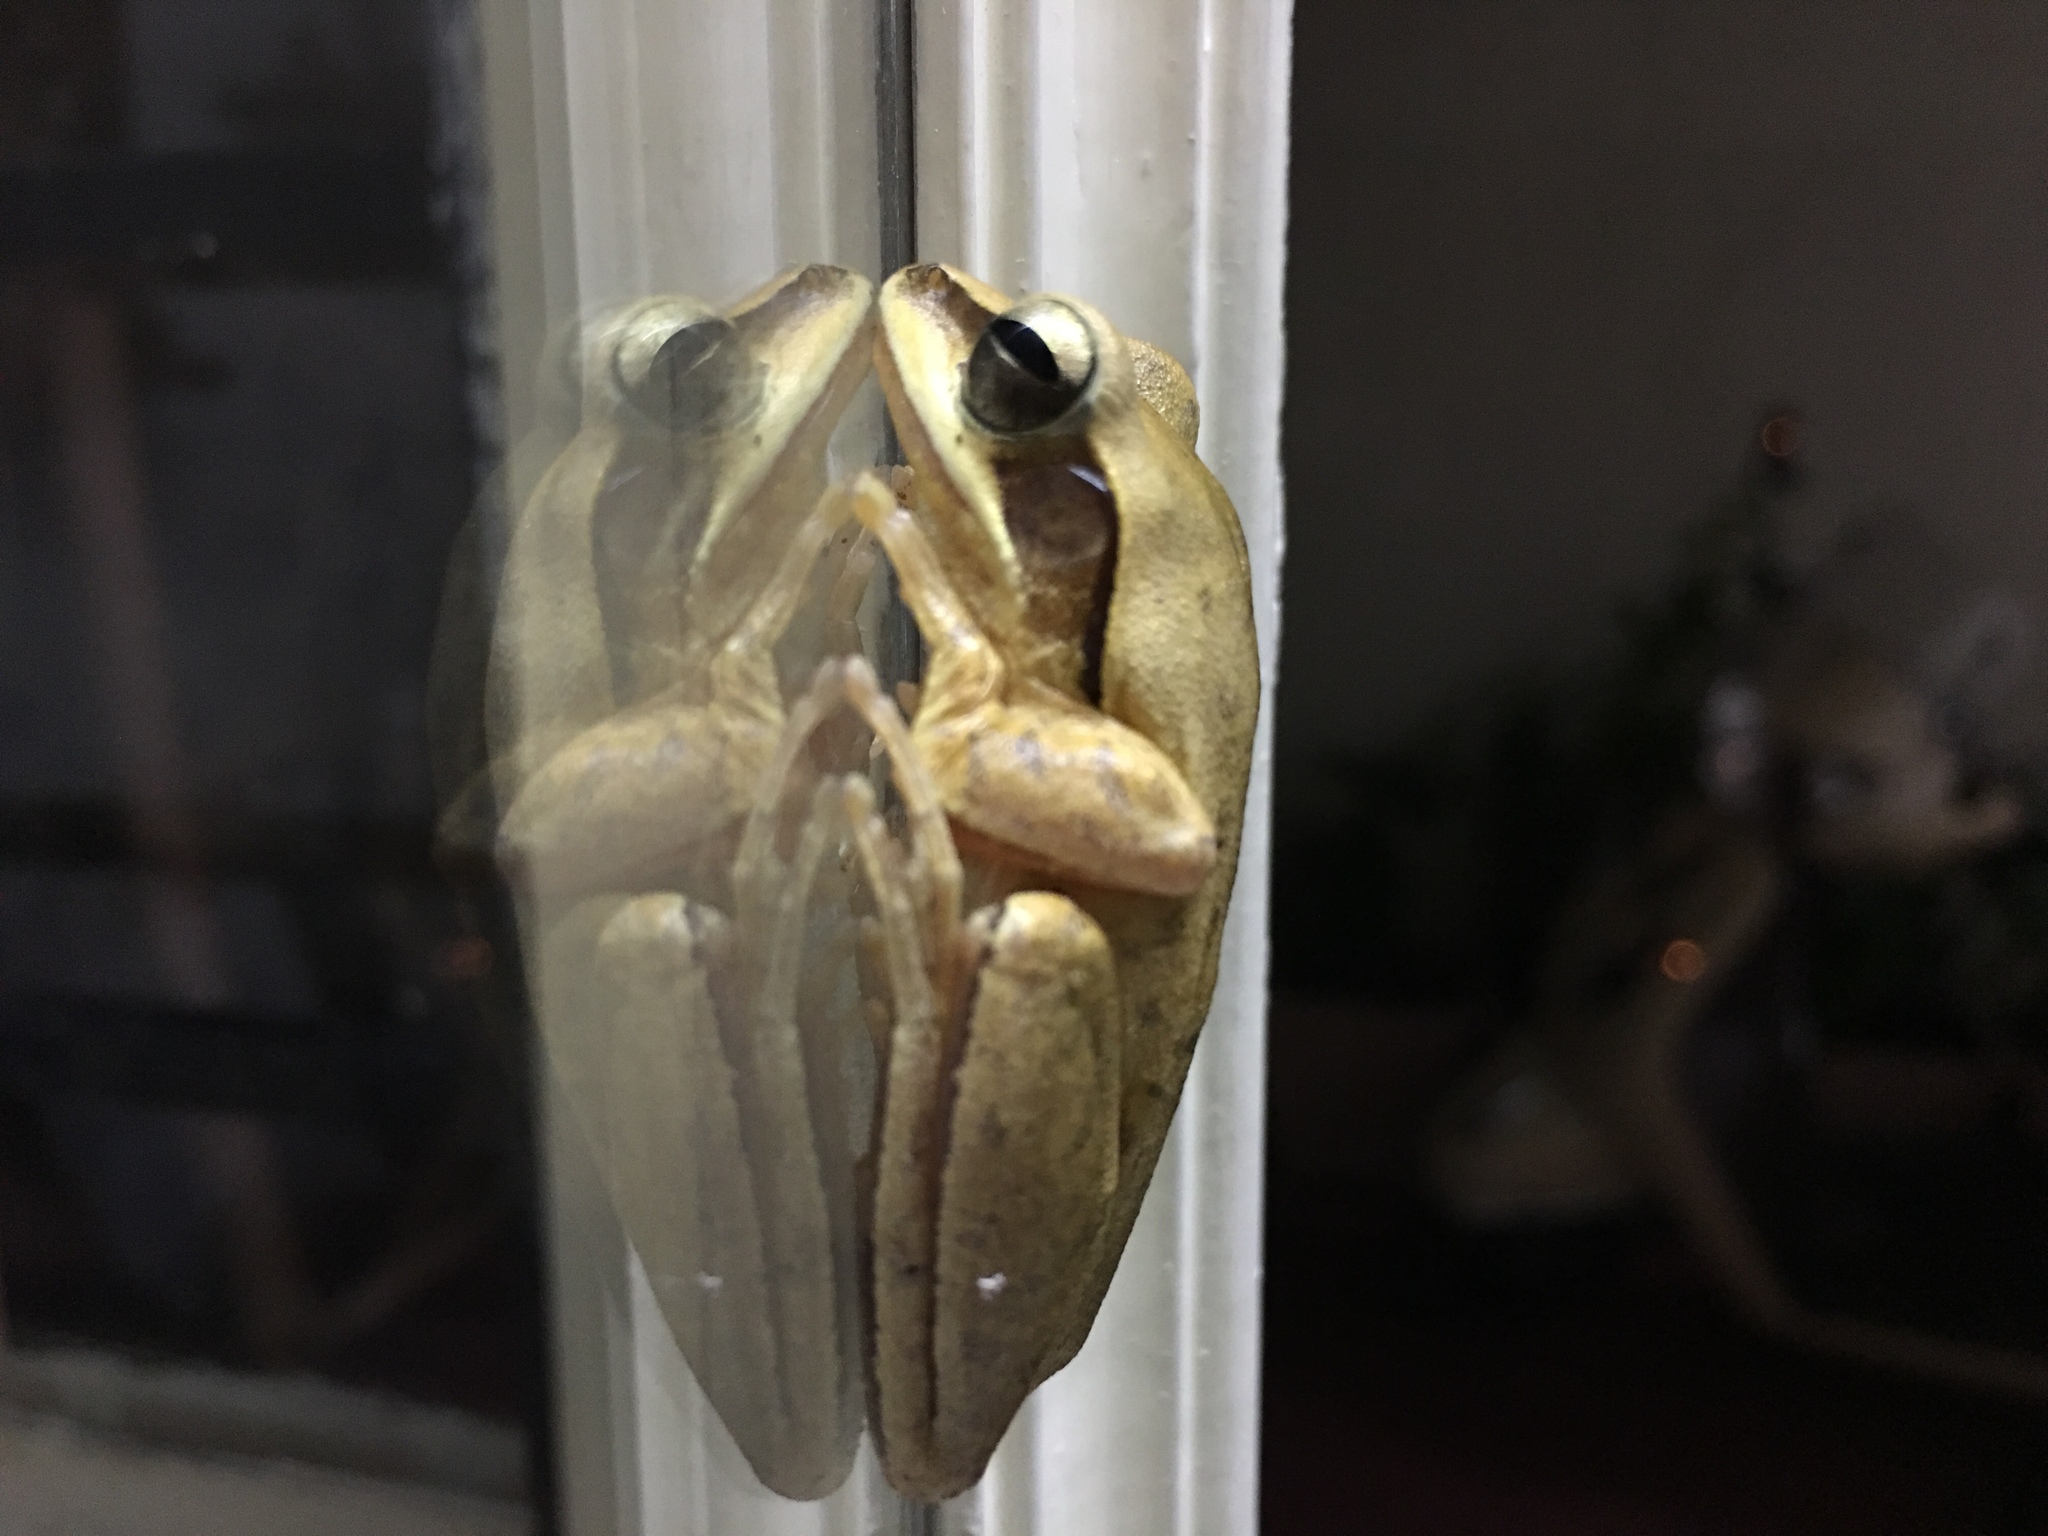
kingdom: Animalia
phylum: Chordata
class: Amphibia
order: Anura
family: Rhacophoridae
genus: Polypedates
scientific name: Polypedates maculatus
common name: Himalayan tree frog
